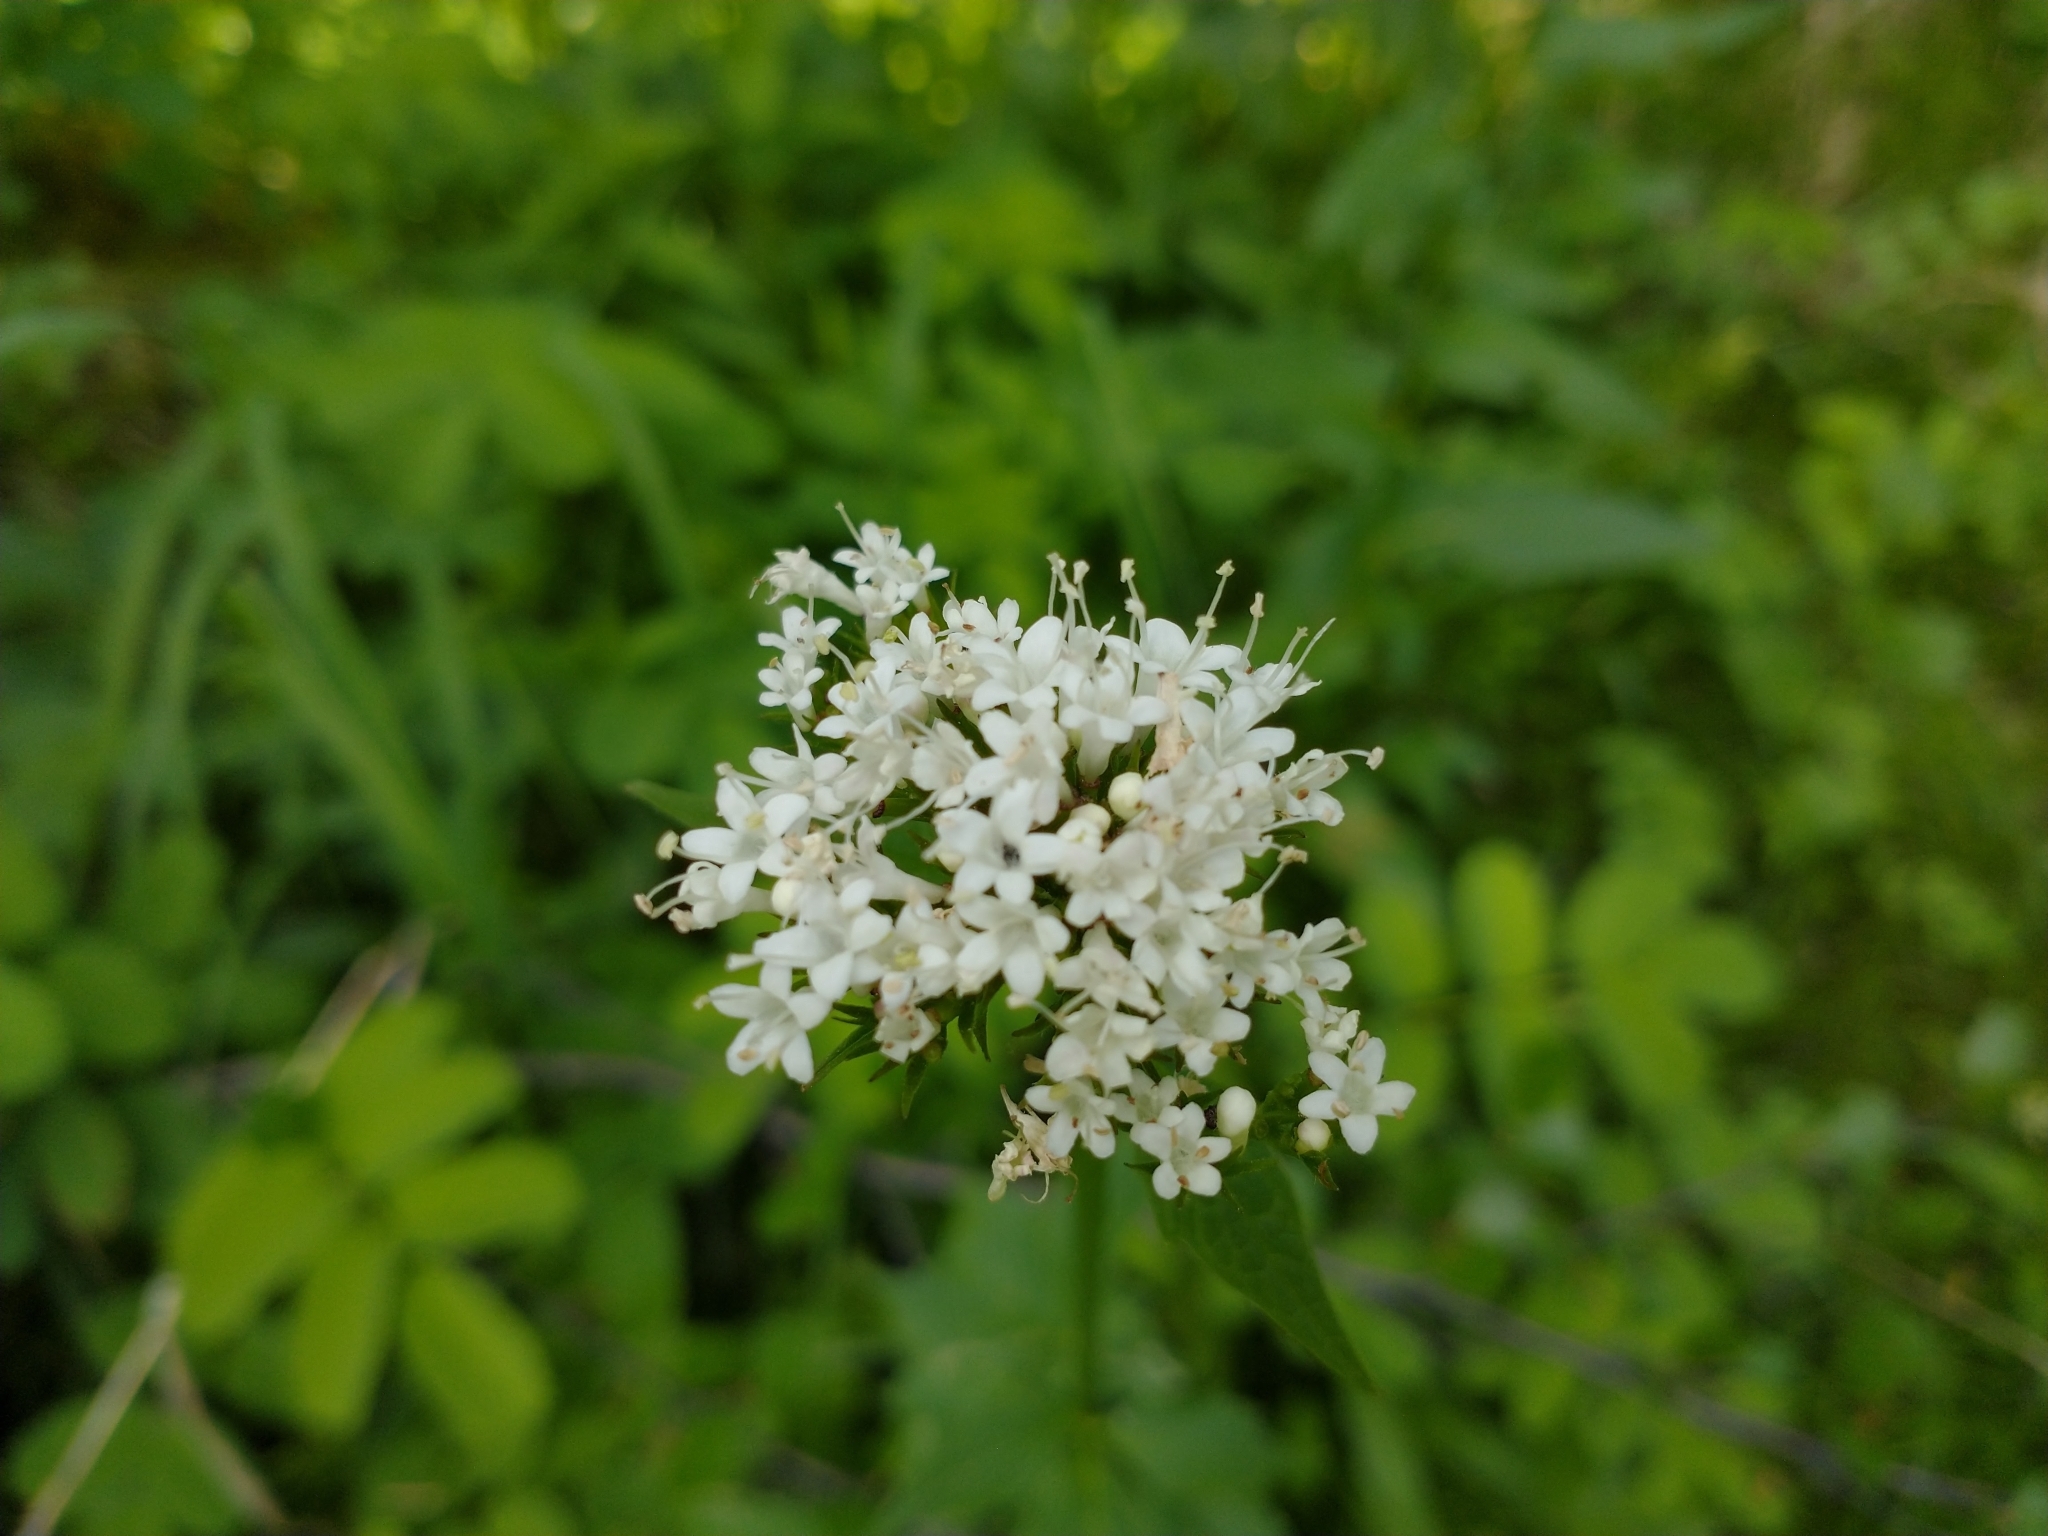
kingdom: Plantae
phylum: Tracheophyta
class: Magnoliopsida
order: Dipsacales
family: Caprifoliaceae
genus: Valeriana
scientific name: Valeriana sitchensis
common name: Pacific valerian
